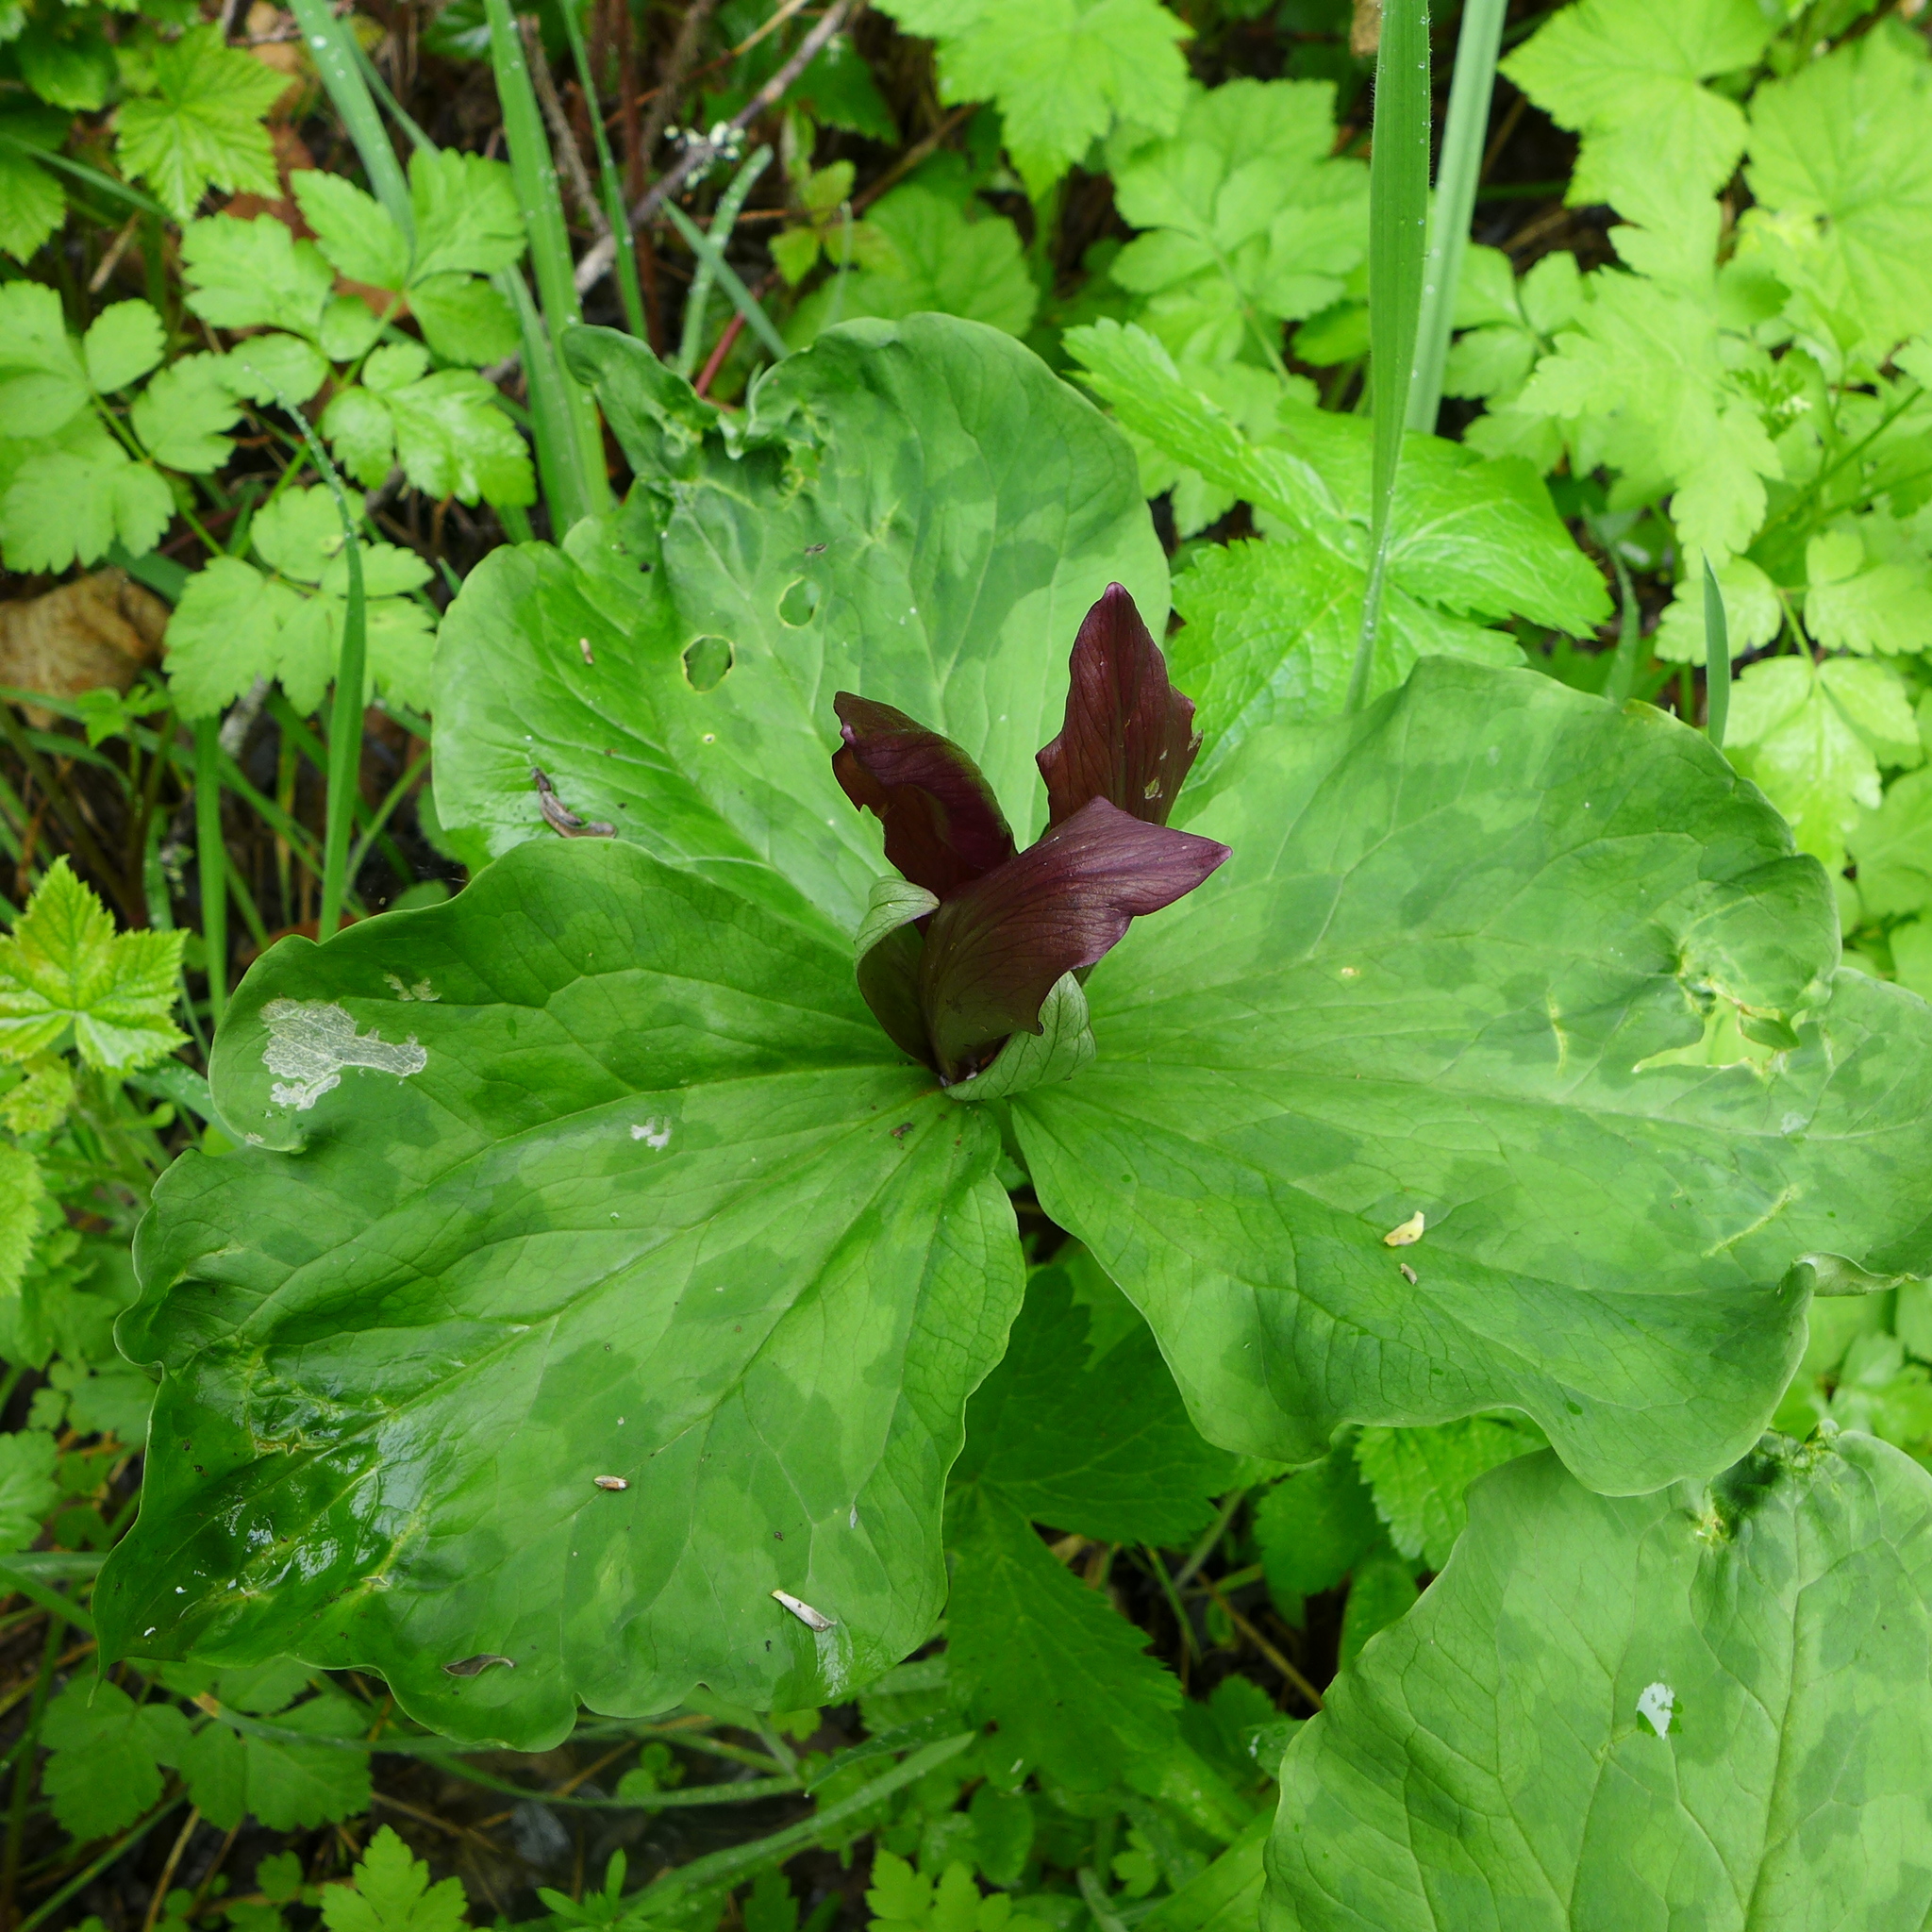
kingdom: Plantae
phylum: Tracheophyta
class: Liliopsida
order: Liliales
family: Melanthiaceae
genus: Trillium
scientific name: Trillium chloropetalum
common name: Giant trillium
